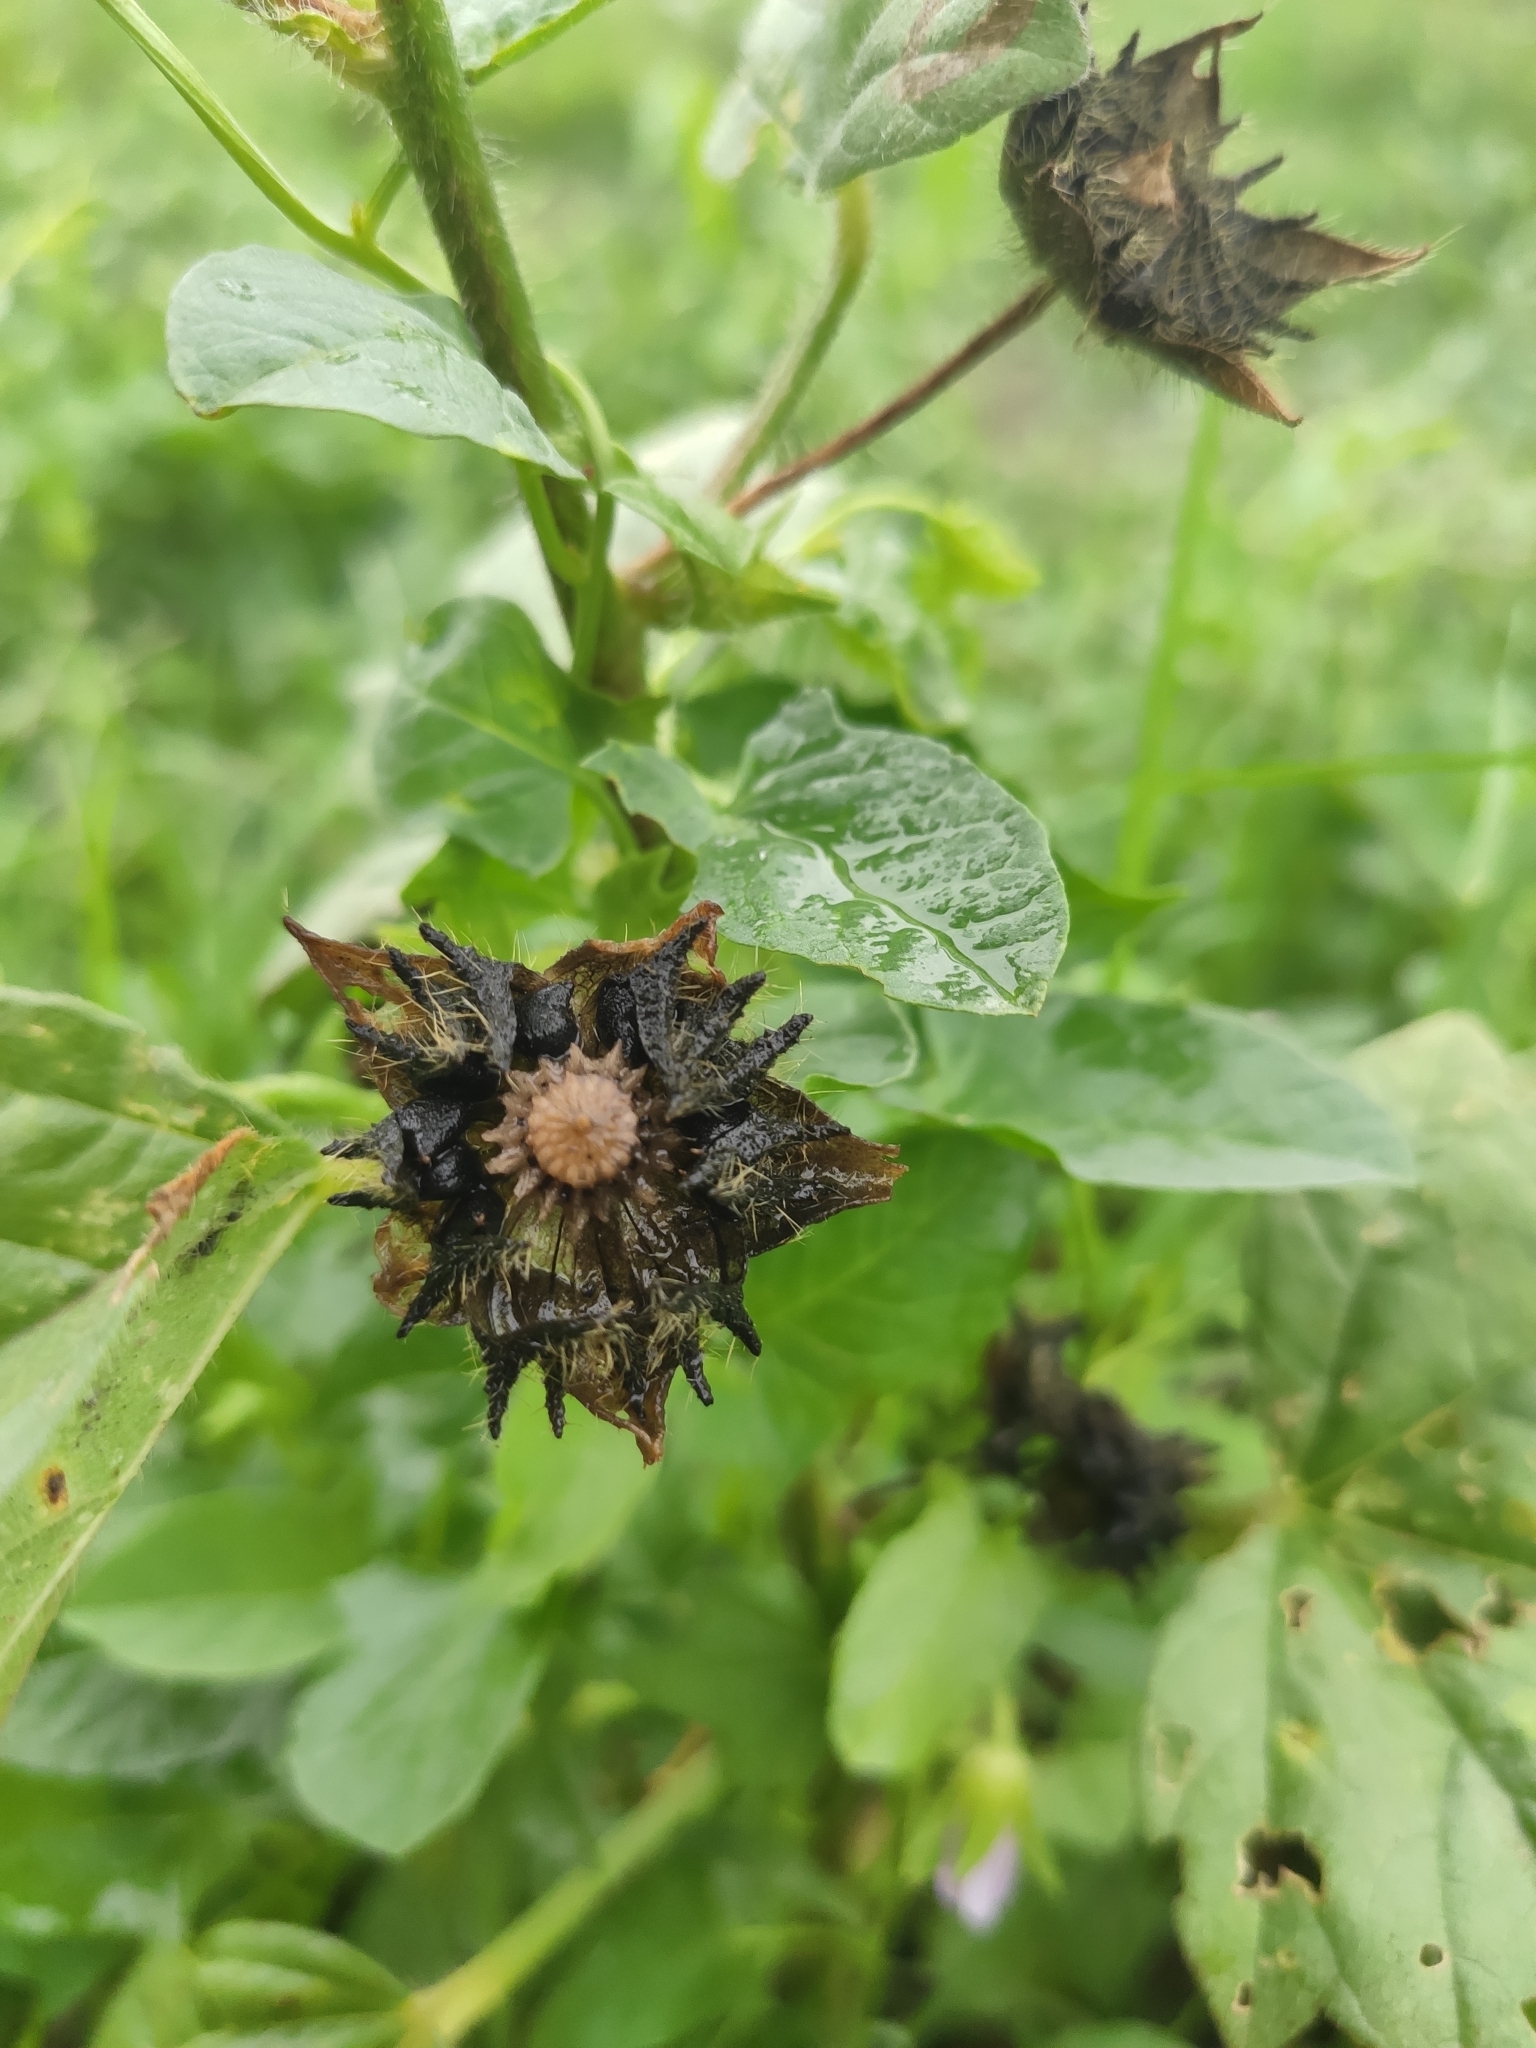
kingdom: Plantae
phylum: Tracheophyta
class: Magnoliopsida
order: Malvales
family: Malvaceae
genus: Anoda
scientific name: Anoda cristata
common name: Spurred anoda
